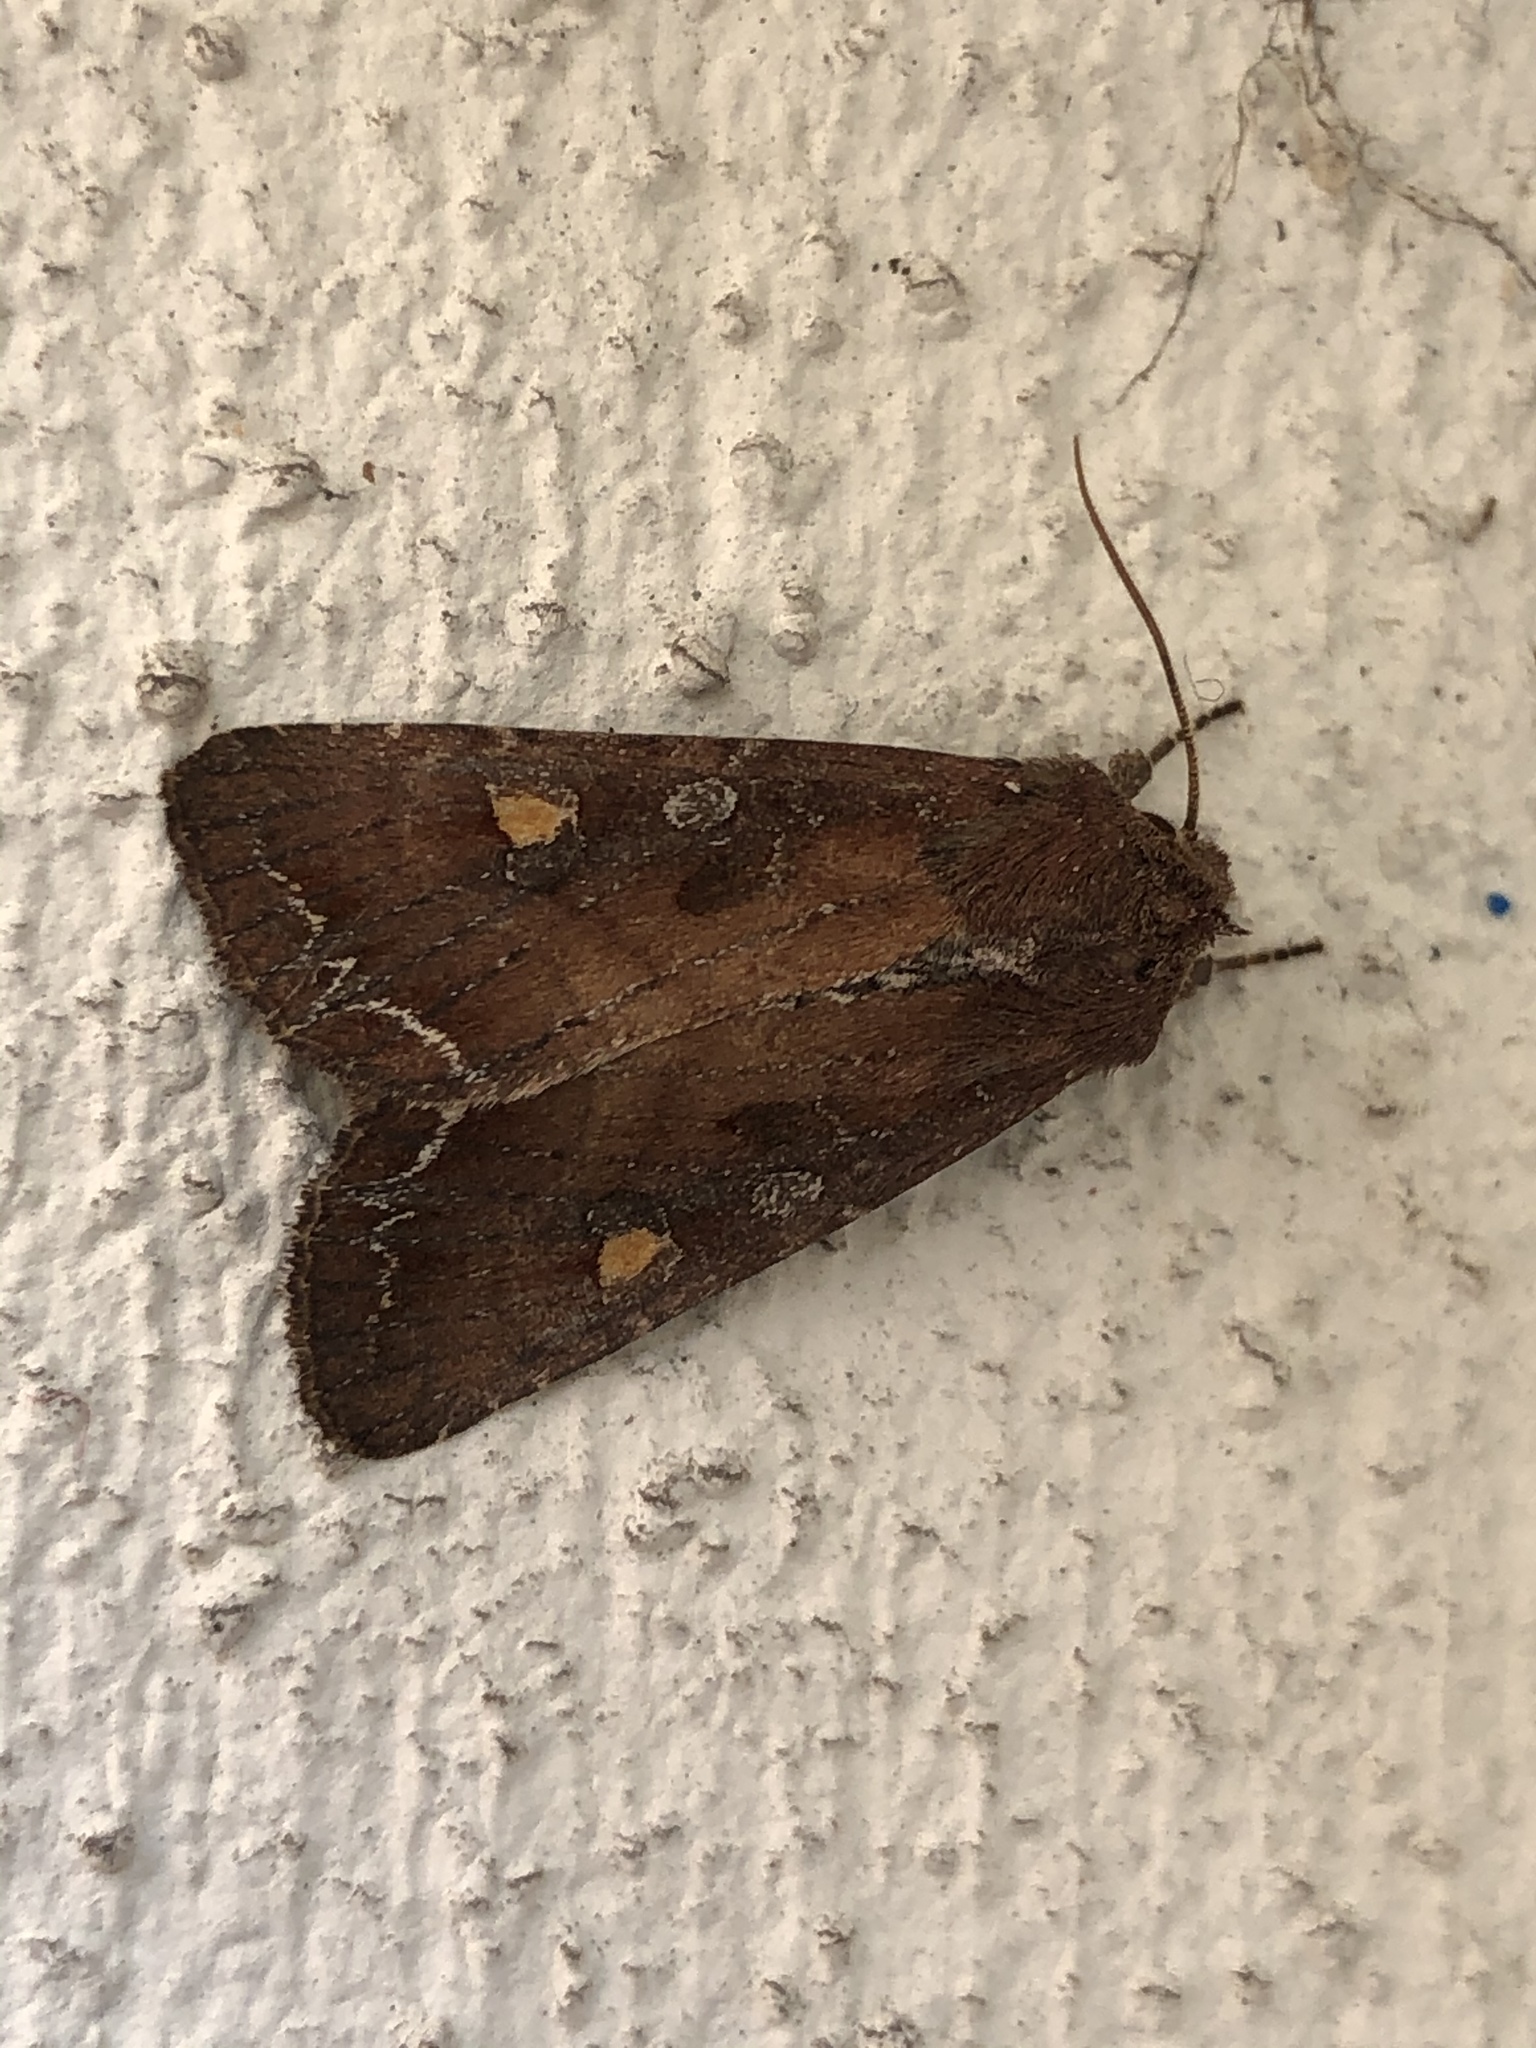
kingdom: Animalia
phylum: Arthropoda
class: Insecta
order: Lepidoptera
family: Noctuidae
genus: Lacanobia
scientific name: Lacanobia oleracea
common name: Bright-line brown-eye
